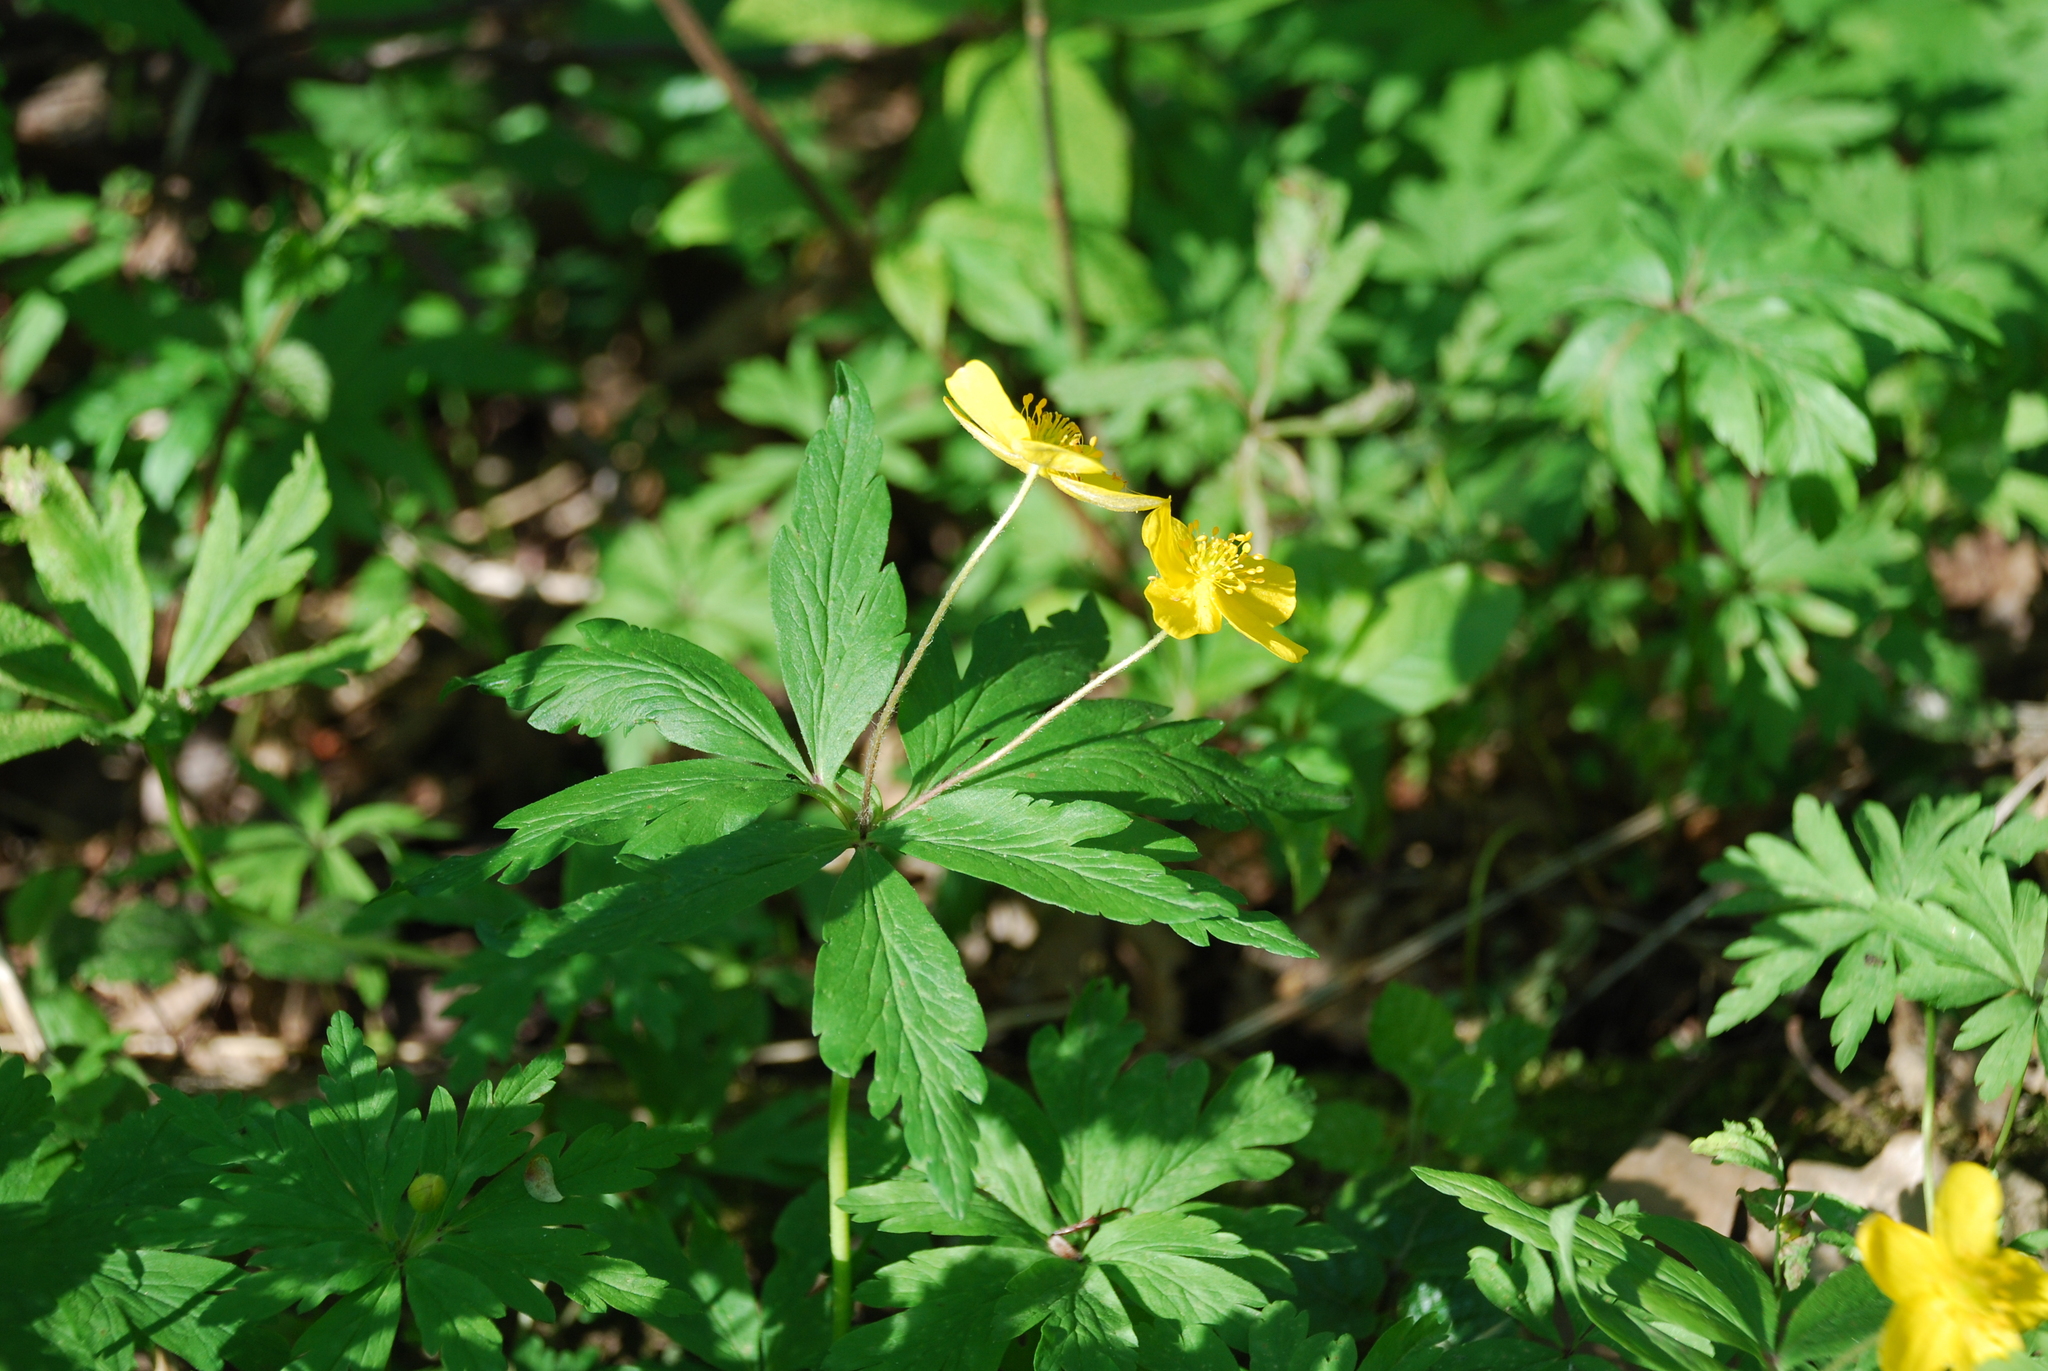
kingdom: Plantae
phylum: Tracheophyta
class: Magnoliopsida
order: Ranunculales
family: Ranunculaceae
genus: Anemone
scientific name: Anemone ranunculoides
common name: Yellow anemone
